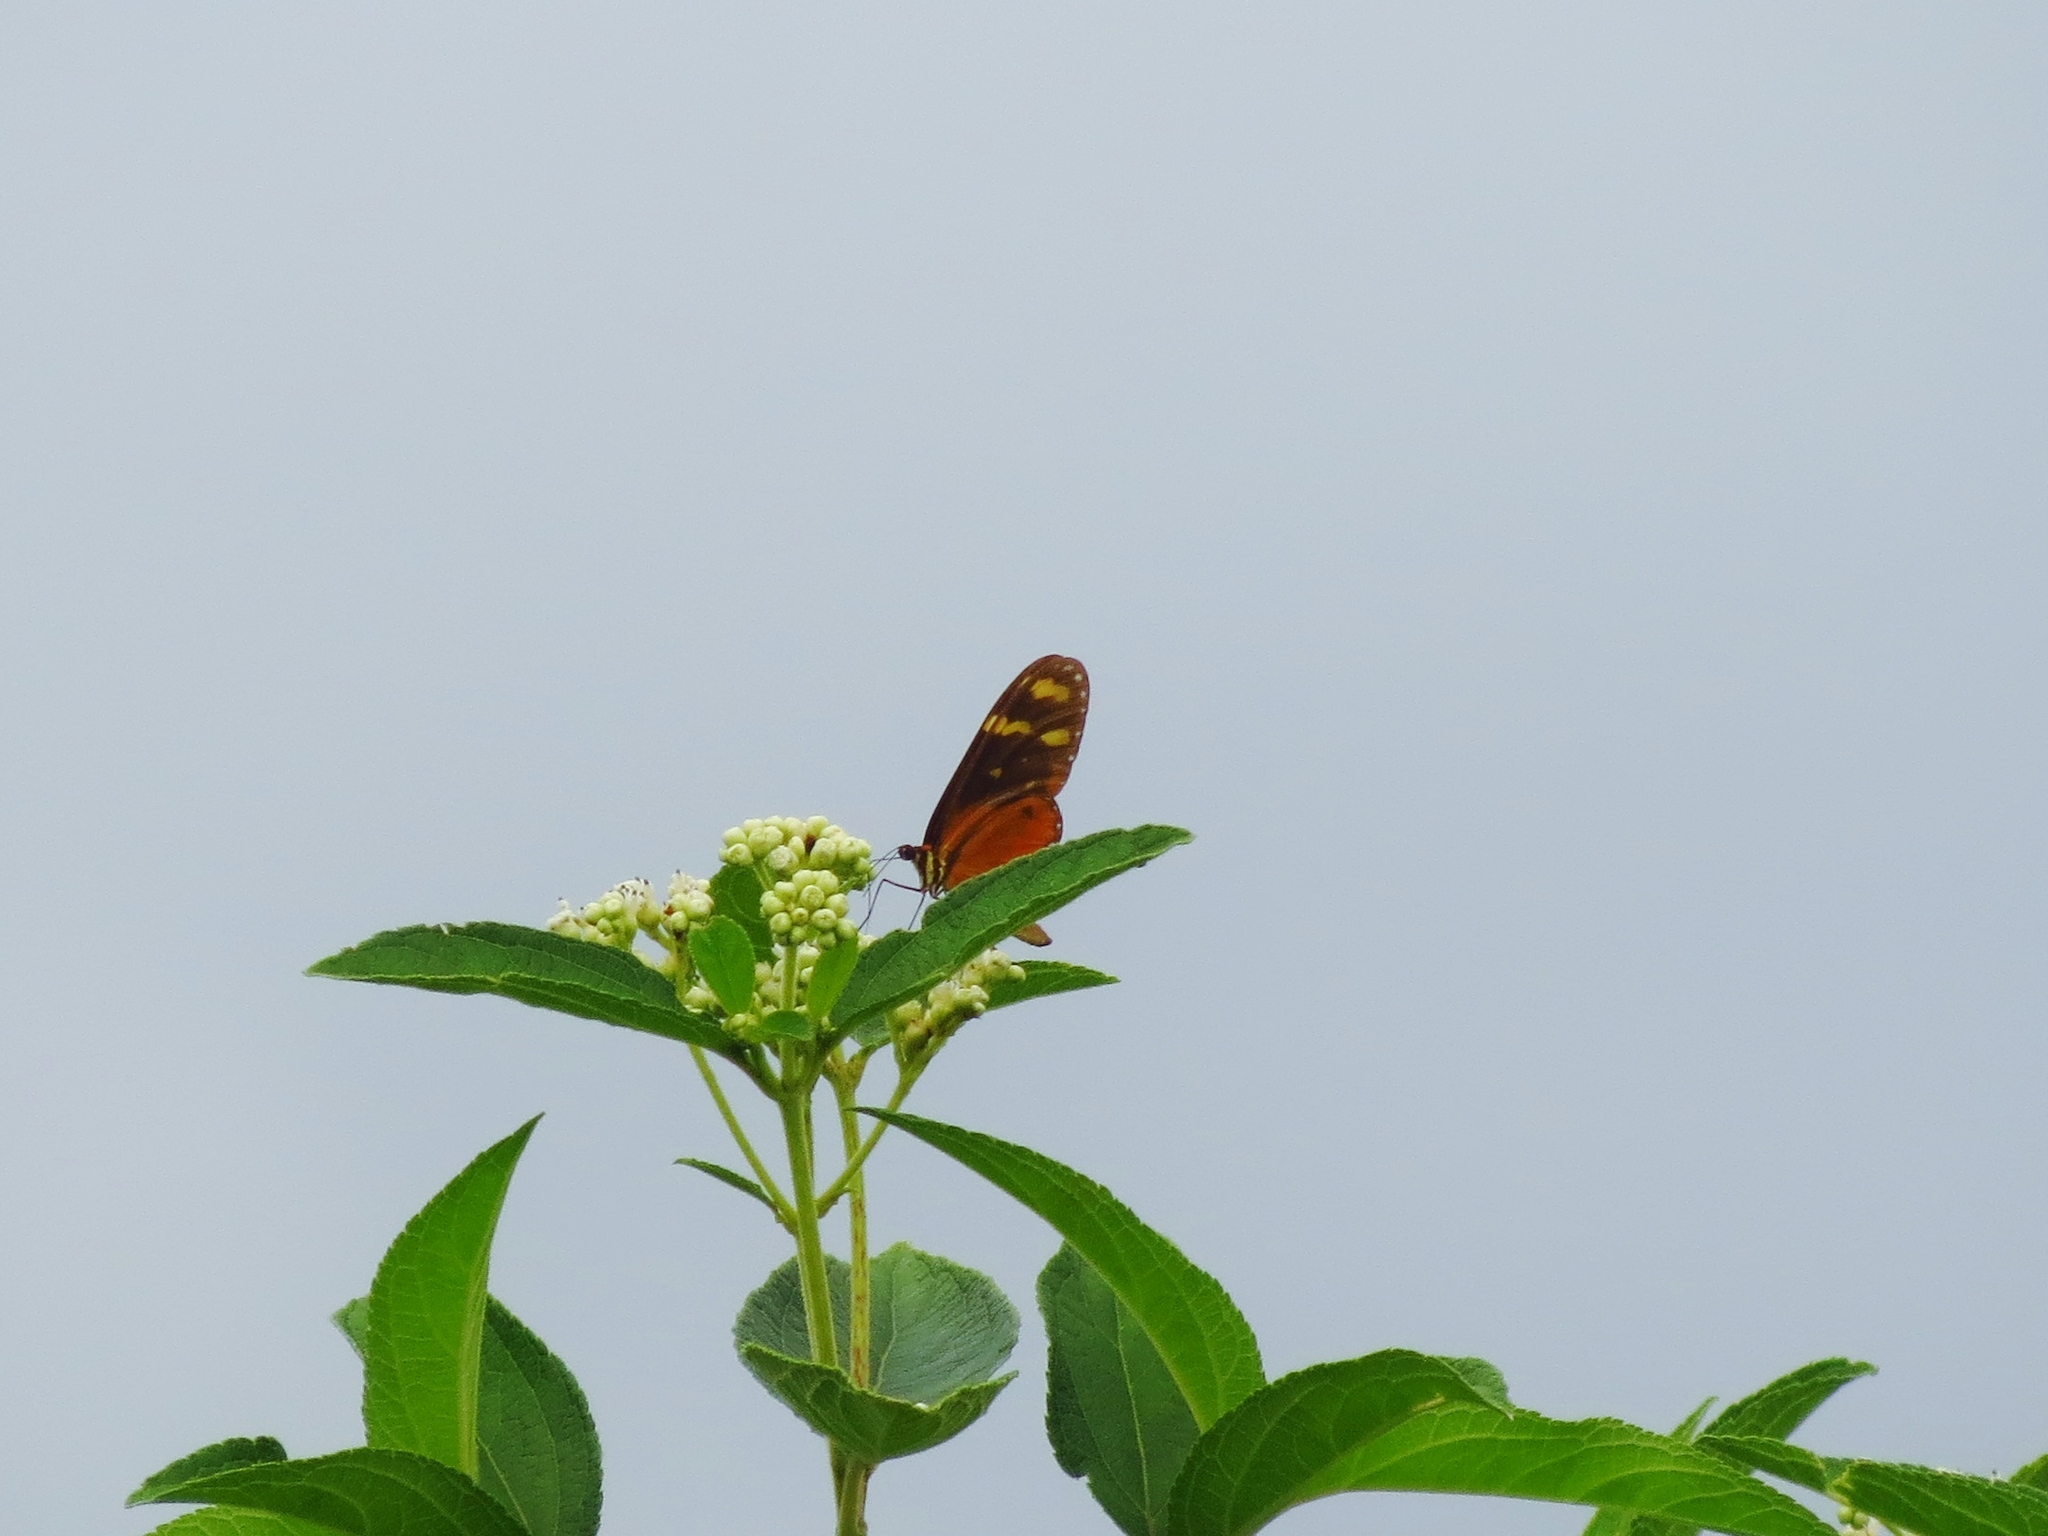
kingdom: Animalia
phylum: Arthropoda
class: Insecta
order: Lepidoptera
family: Nymphalidae
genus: Mechanitis
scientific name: Mechanitis polymnia
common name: Disturbed tigerwing
